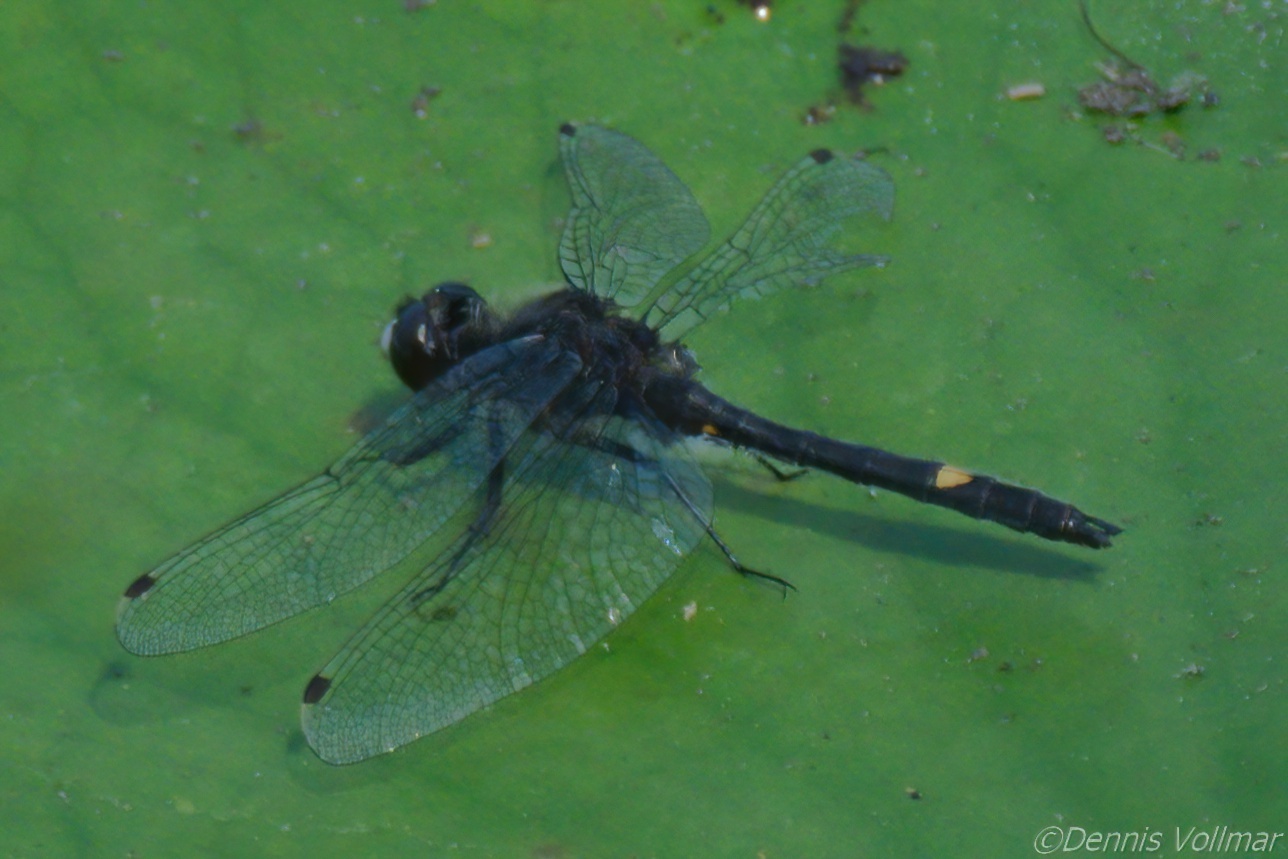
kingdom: Animalia
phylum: Arthropoda
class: Insecta
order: Odonata
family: Libellulidae
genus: Leucorrhinia
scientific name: Leucorrhinia intacta
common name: Dot-tailed whiteface
